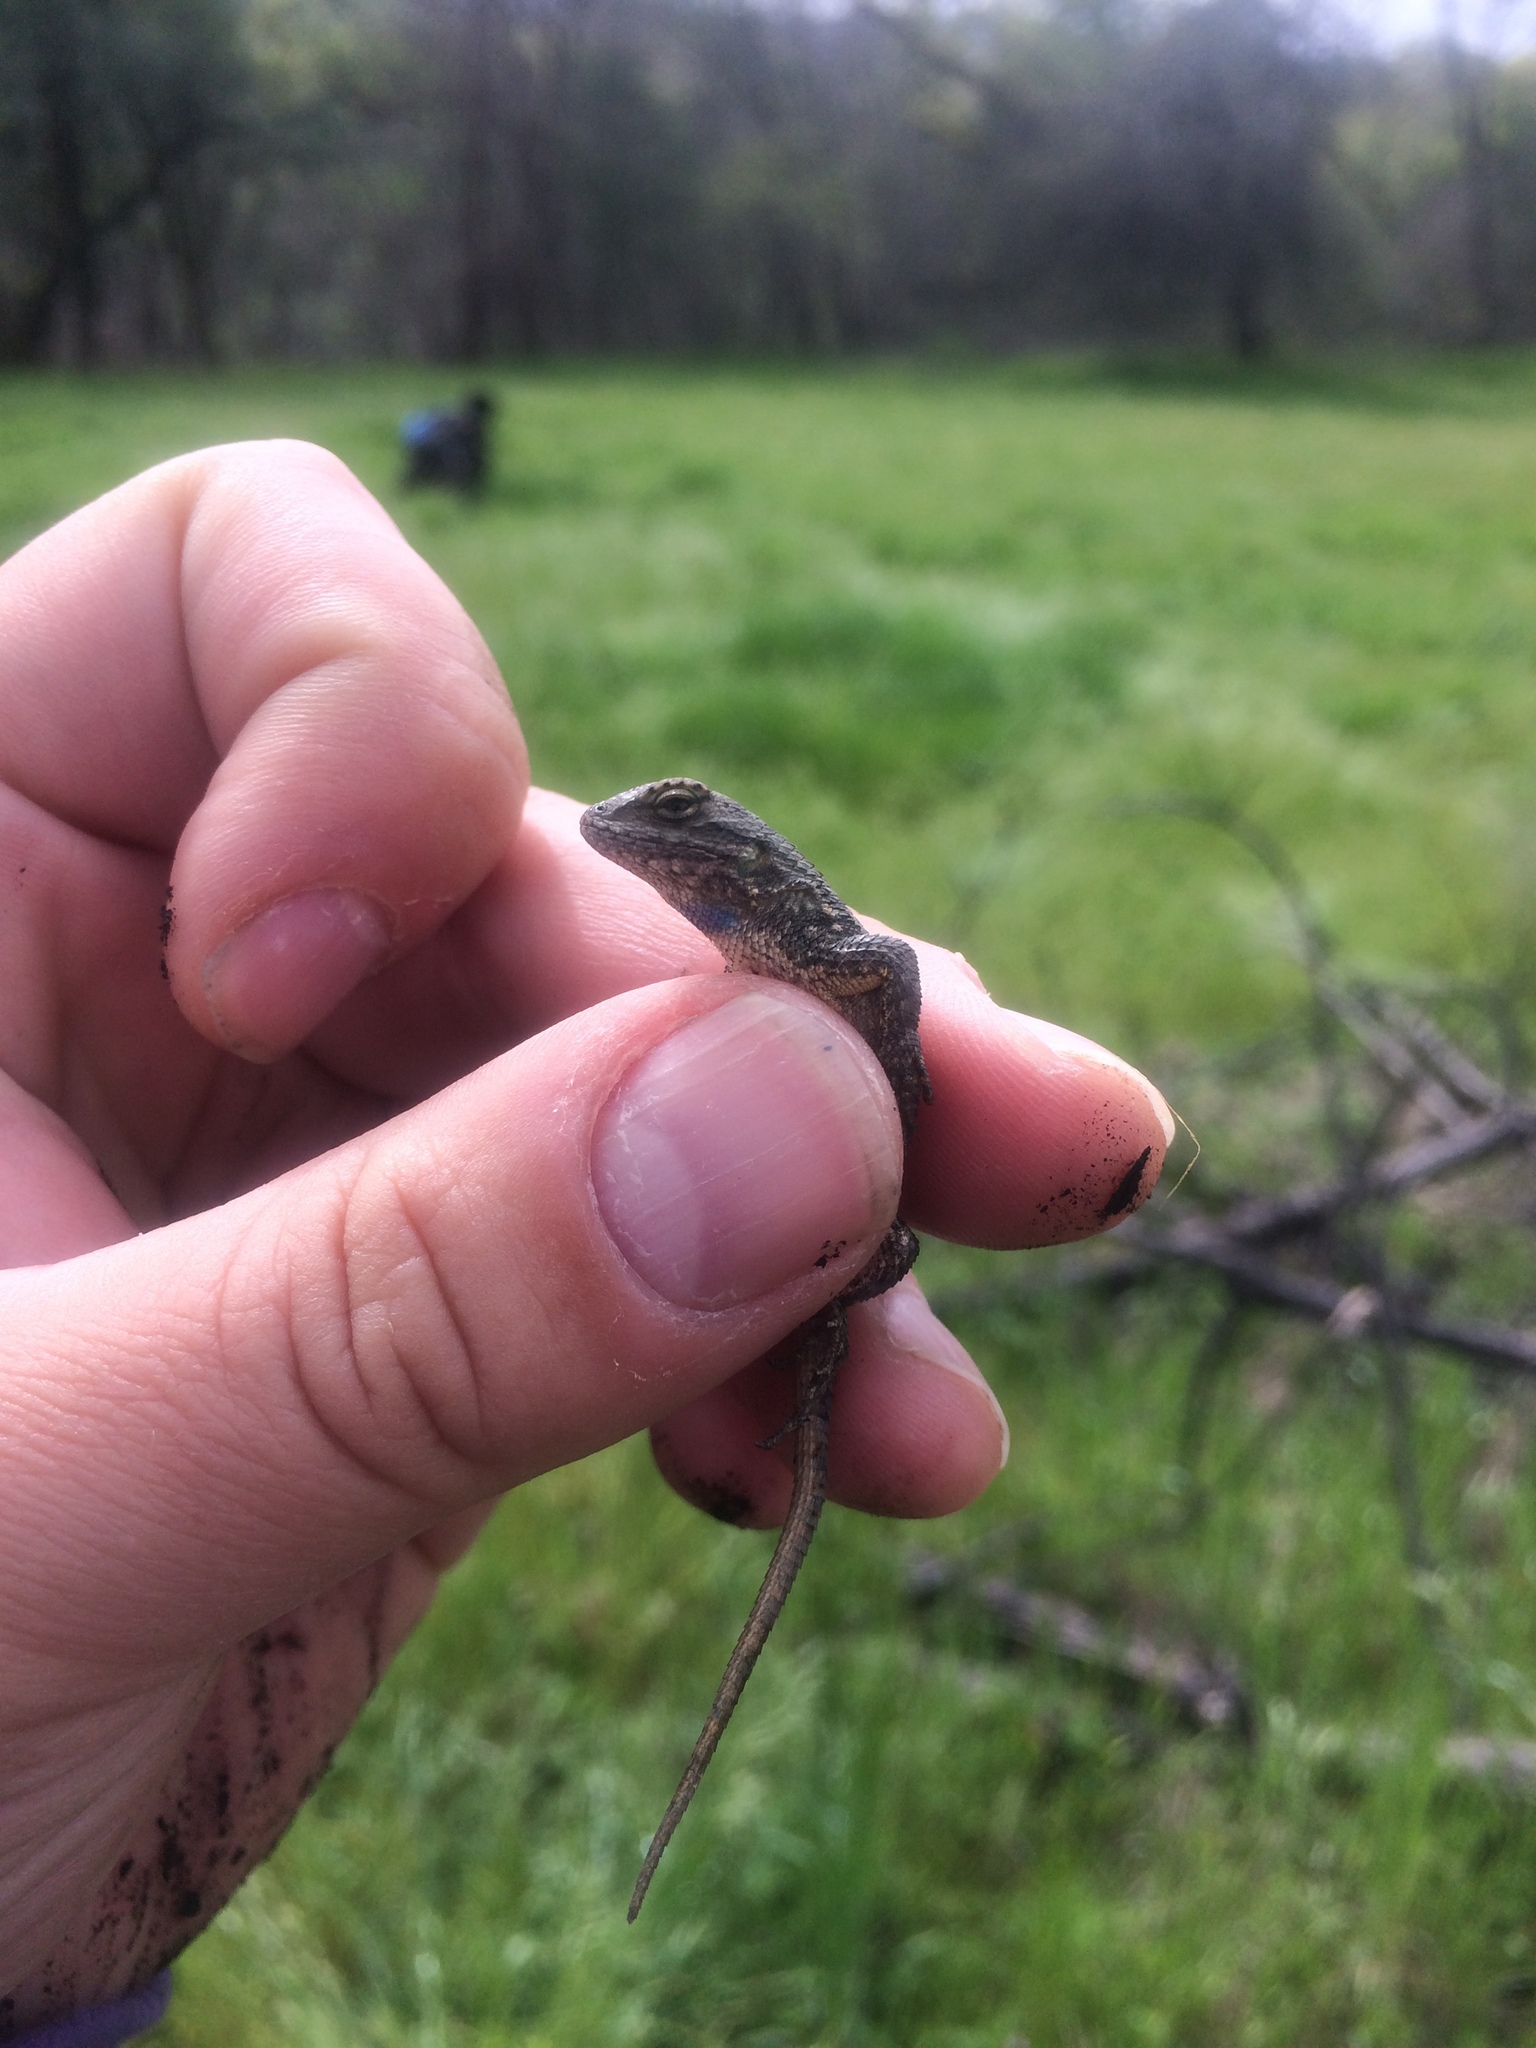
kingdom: Animalia
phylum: Chordata
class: Squamata
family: Phrynosomatidae
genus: Sceloporus
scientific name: Sceloporus occidentalis
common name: Western fence lizard
